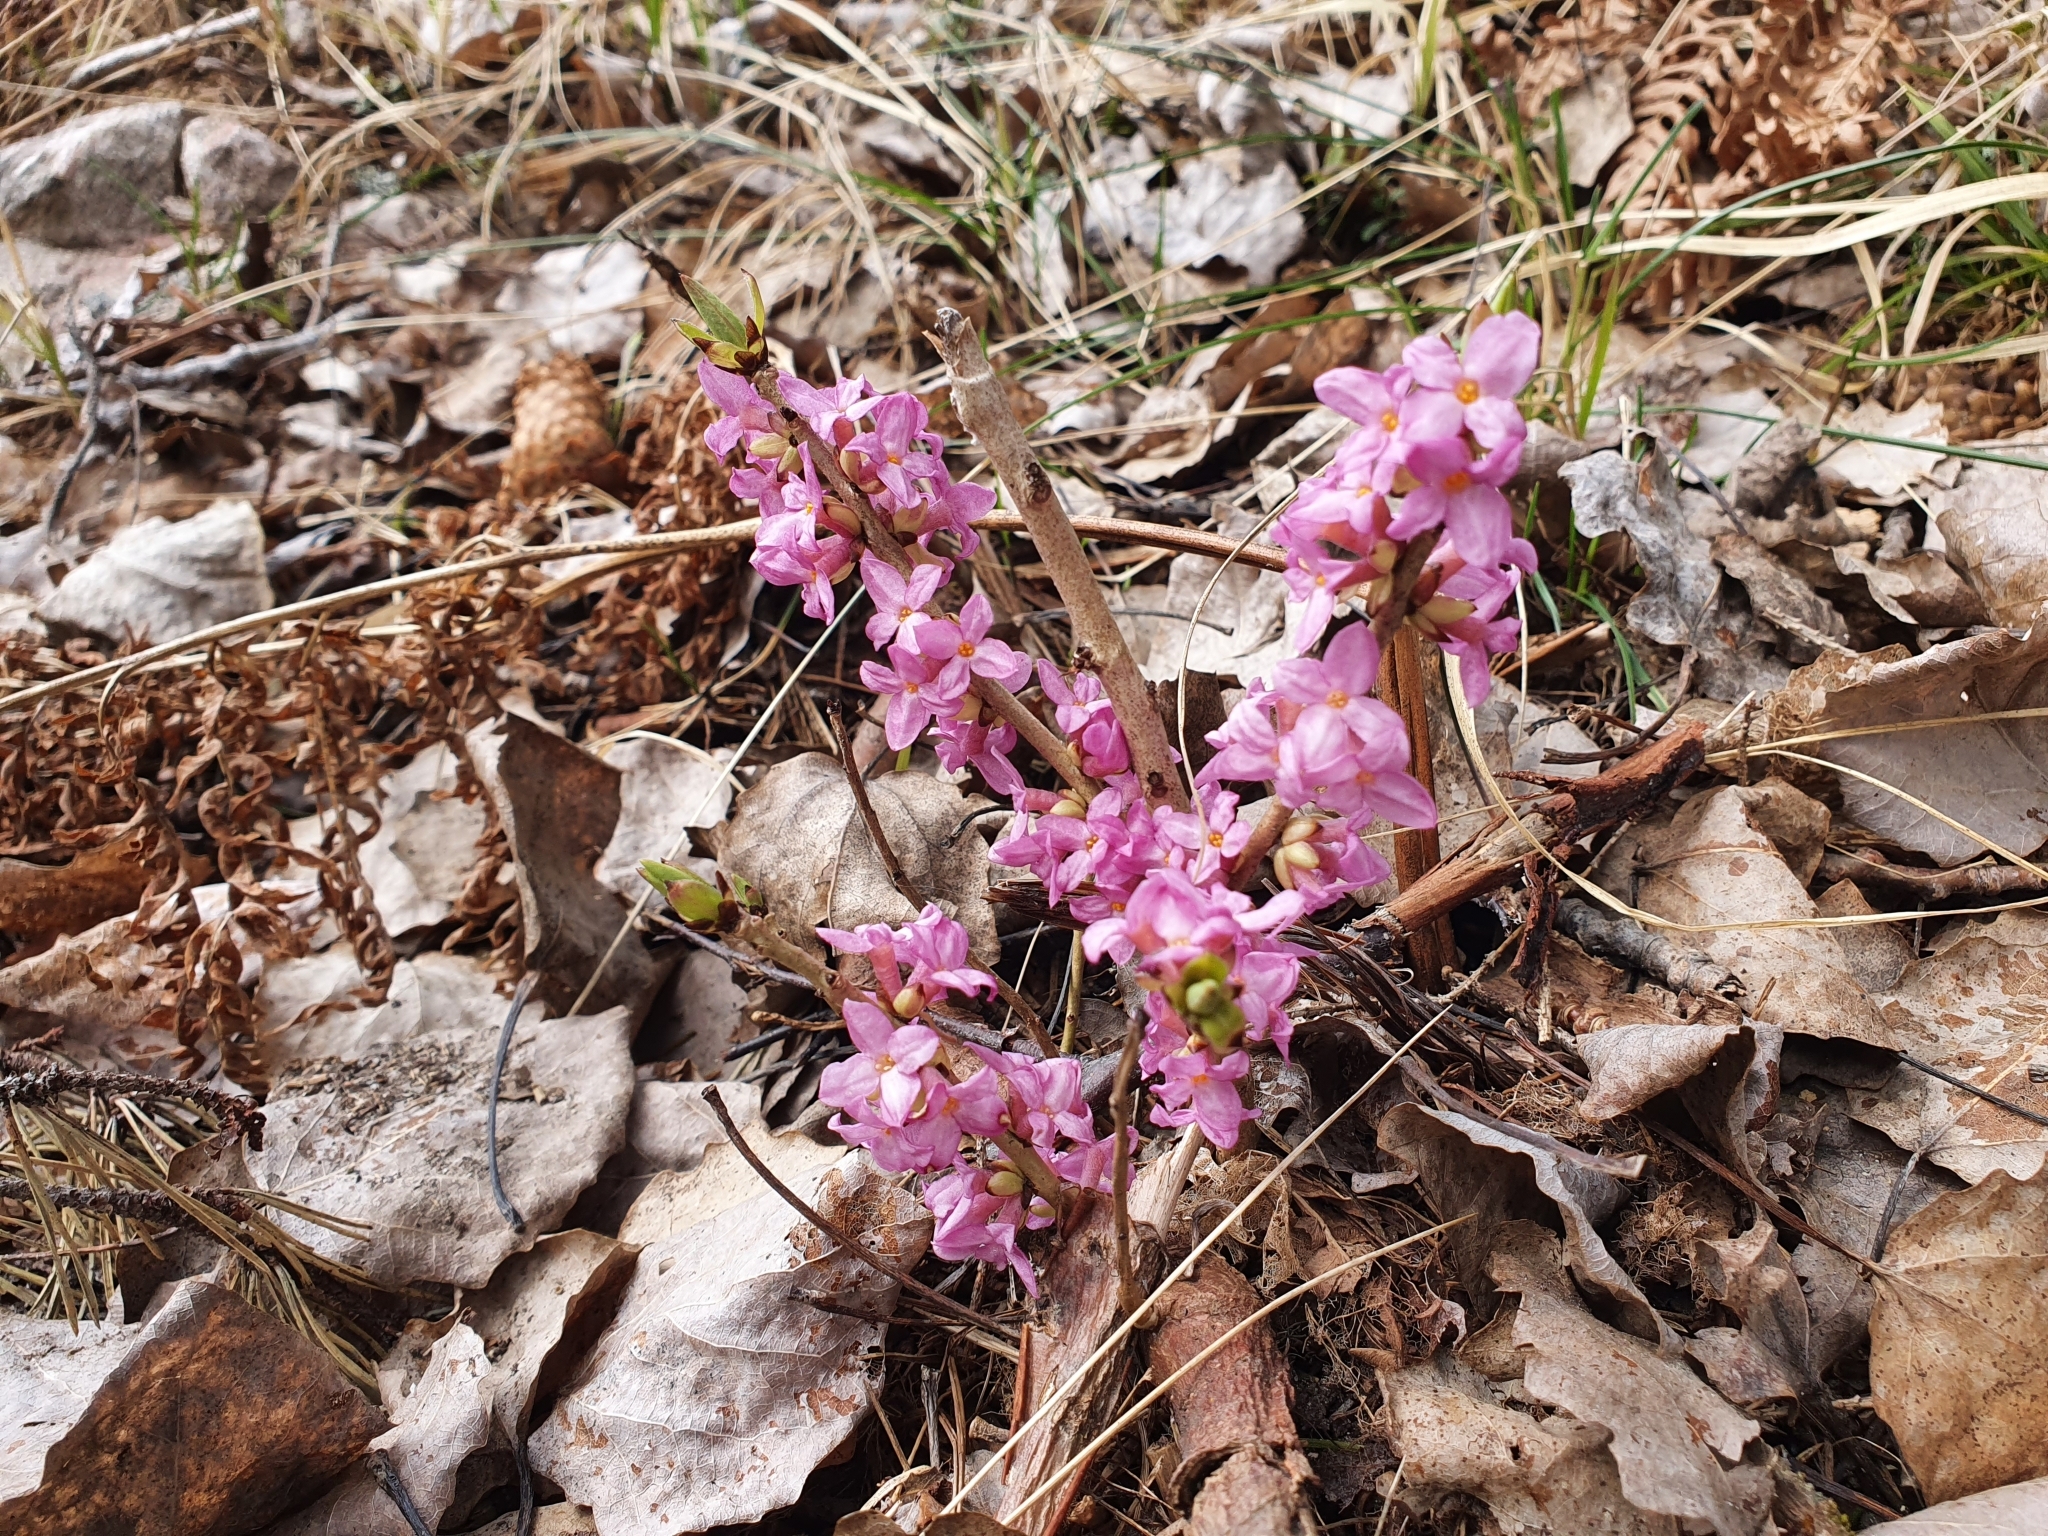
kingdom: Plantae
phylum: Tracheophyta
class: Magnoliopsida
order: Malvales
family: Thymelaeaceae
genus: Daphne
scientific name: Daphne mezereum
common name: Mezereon
